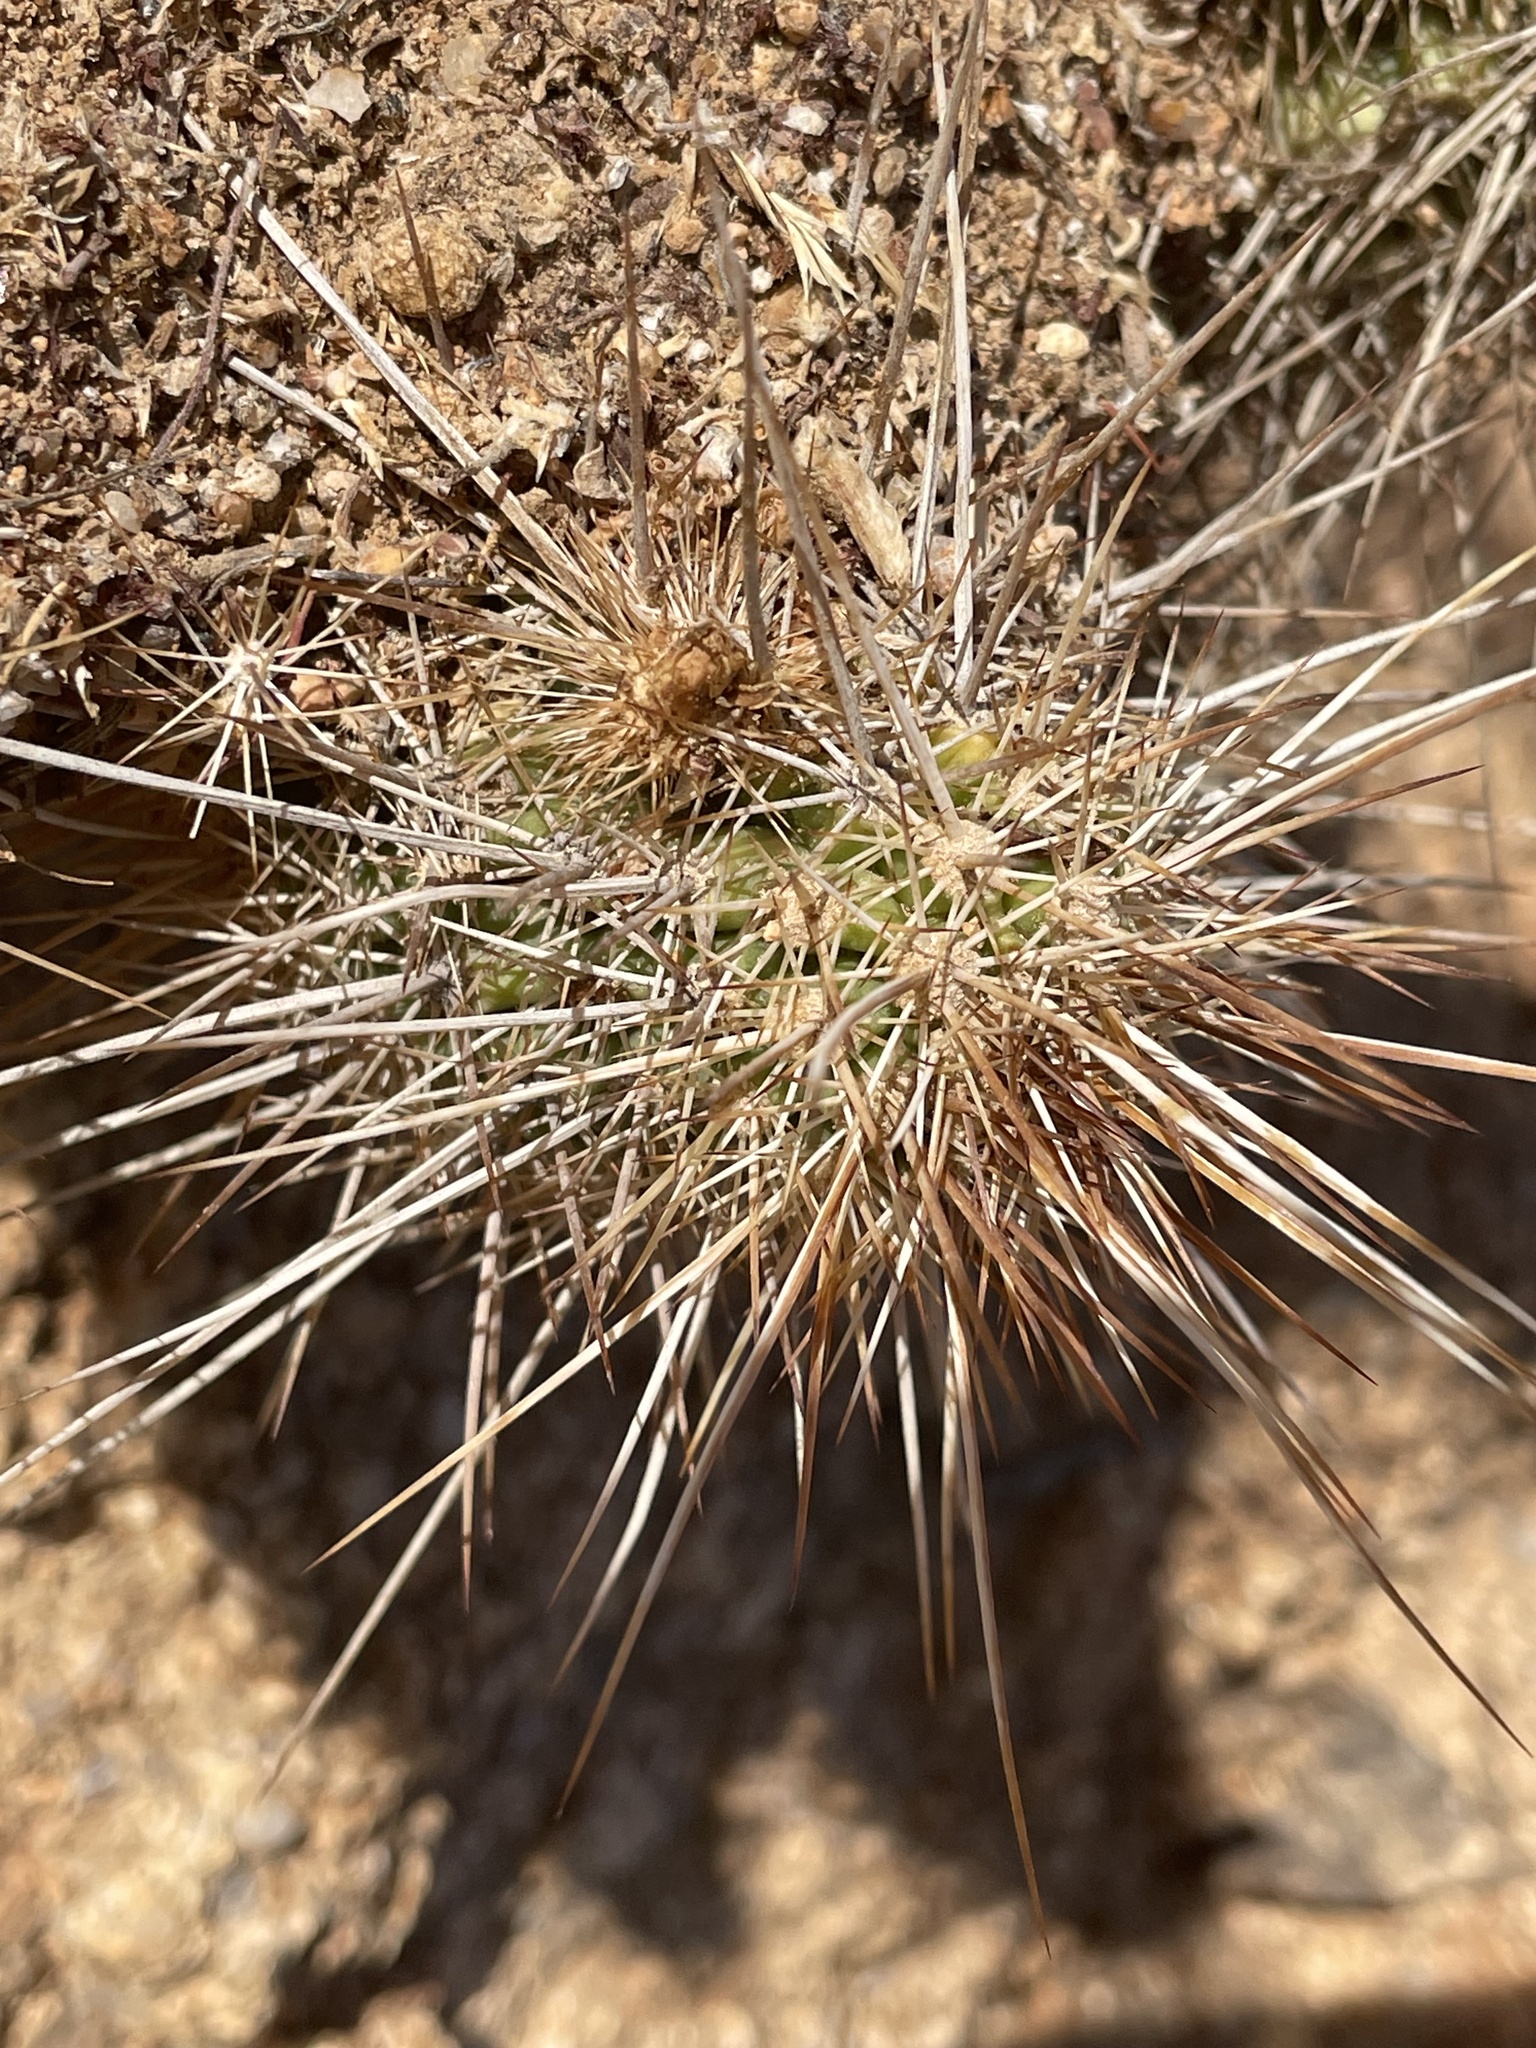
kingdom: Plantae
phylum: Tracheophyta
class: Magnoliopsida
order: Caryophyllales
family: Cactaceae
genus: Echinocereus
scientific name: Echinocereus engelmannii
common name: Engelmann's hedgehog cactus
